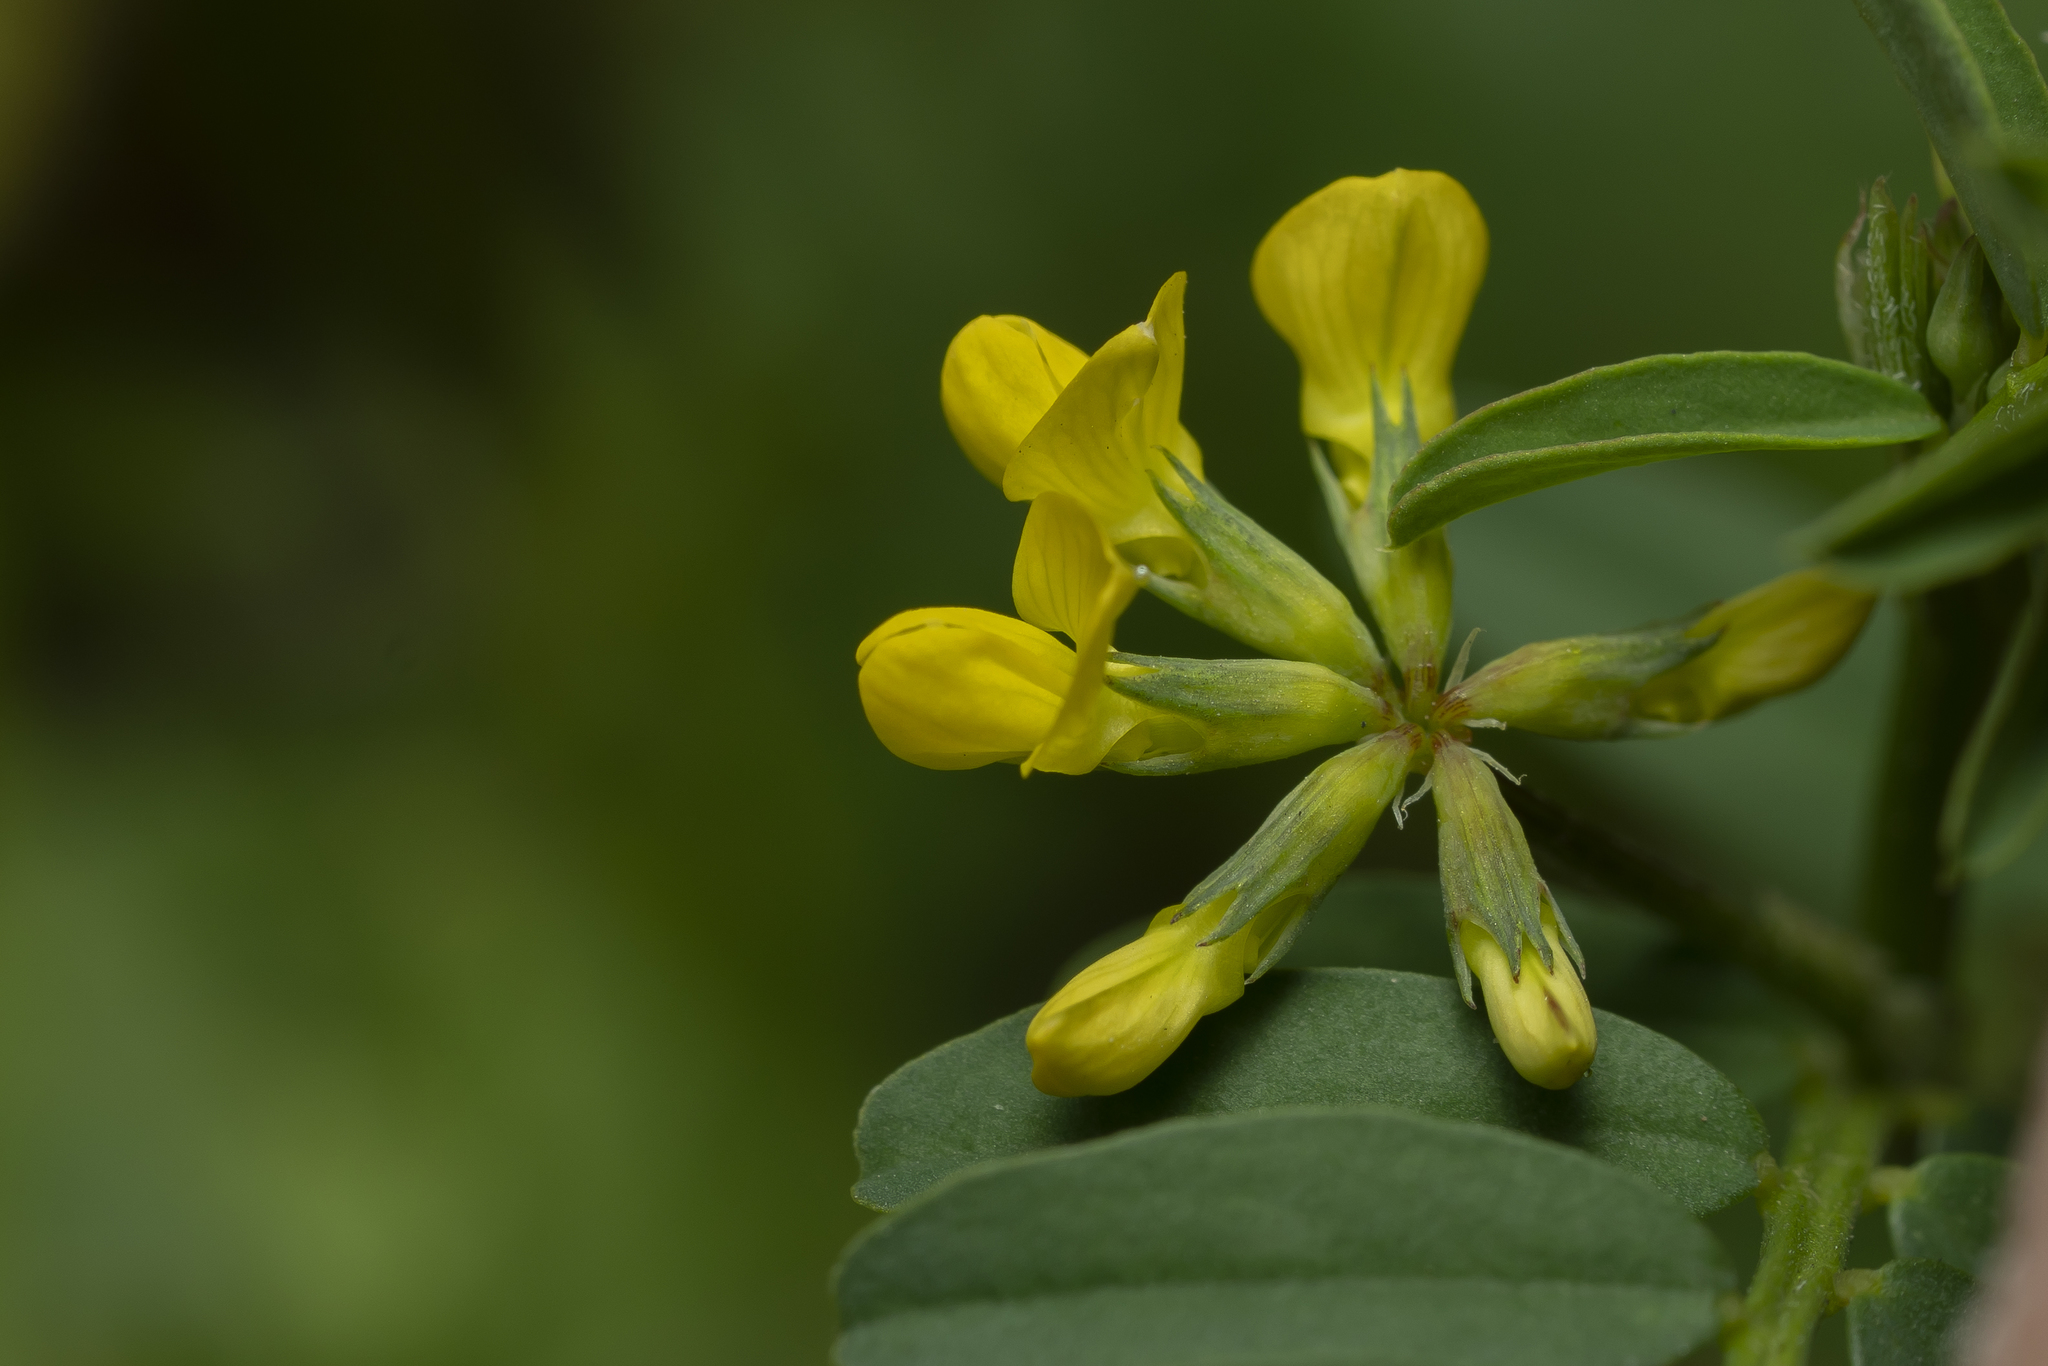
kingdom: Plantae
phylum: Tracheophyta
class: Magnoliopsida
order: Fabales
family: Fabaceae
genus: Hippocrepis
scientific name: Hippocrepis
